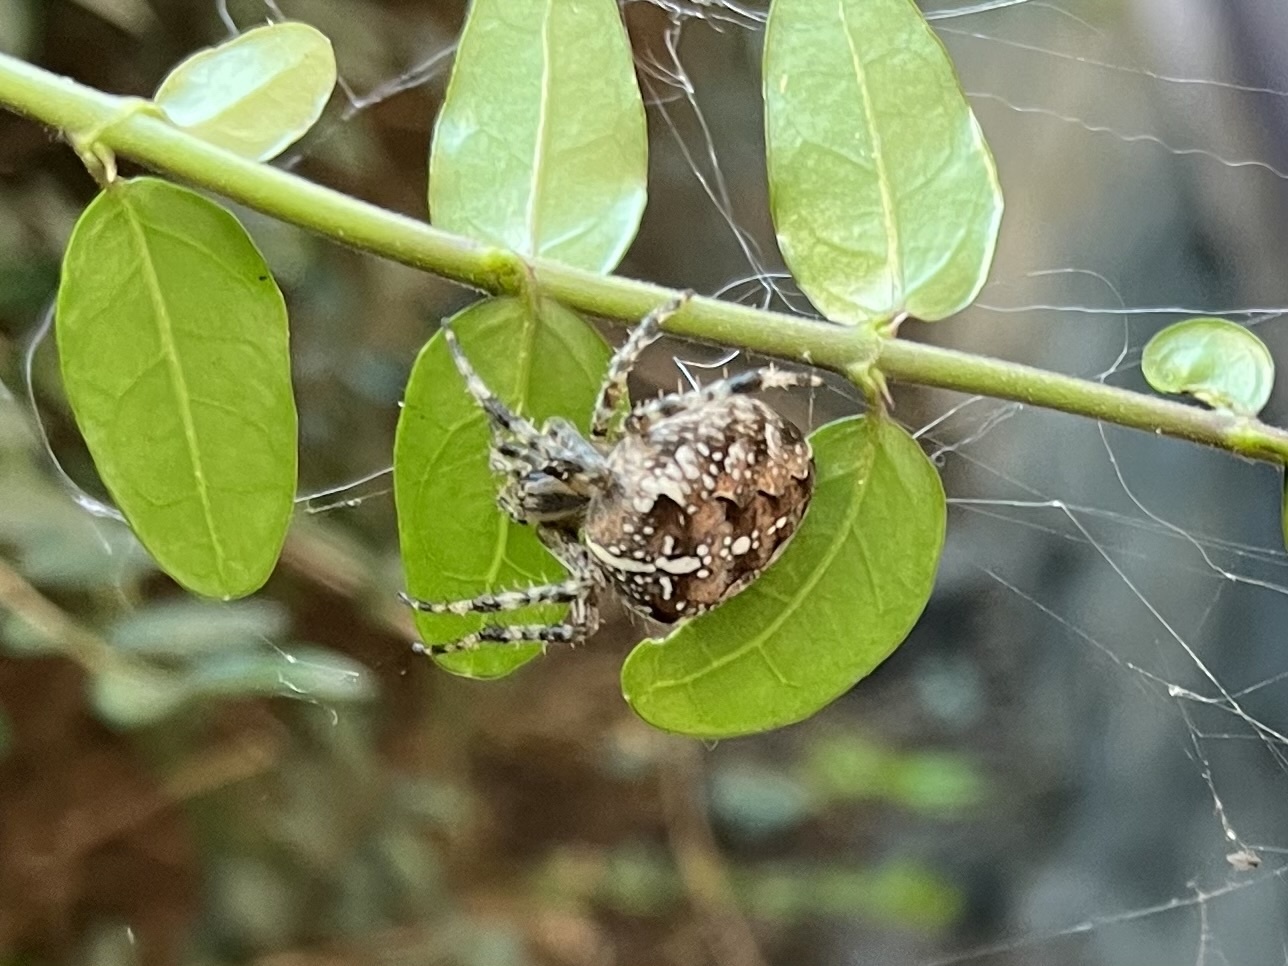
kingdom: Animalia
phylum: Arthropoda
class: Arachnida
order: Araneae
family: Araneidae
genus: Araneus
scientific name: Araneus diadematus
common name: Cross orbweaver
